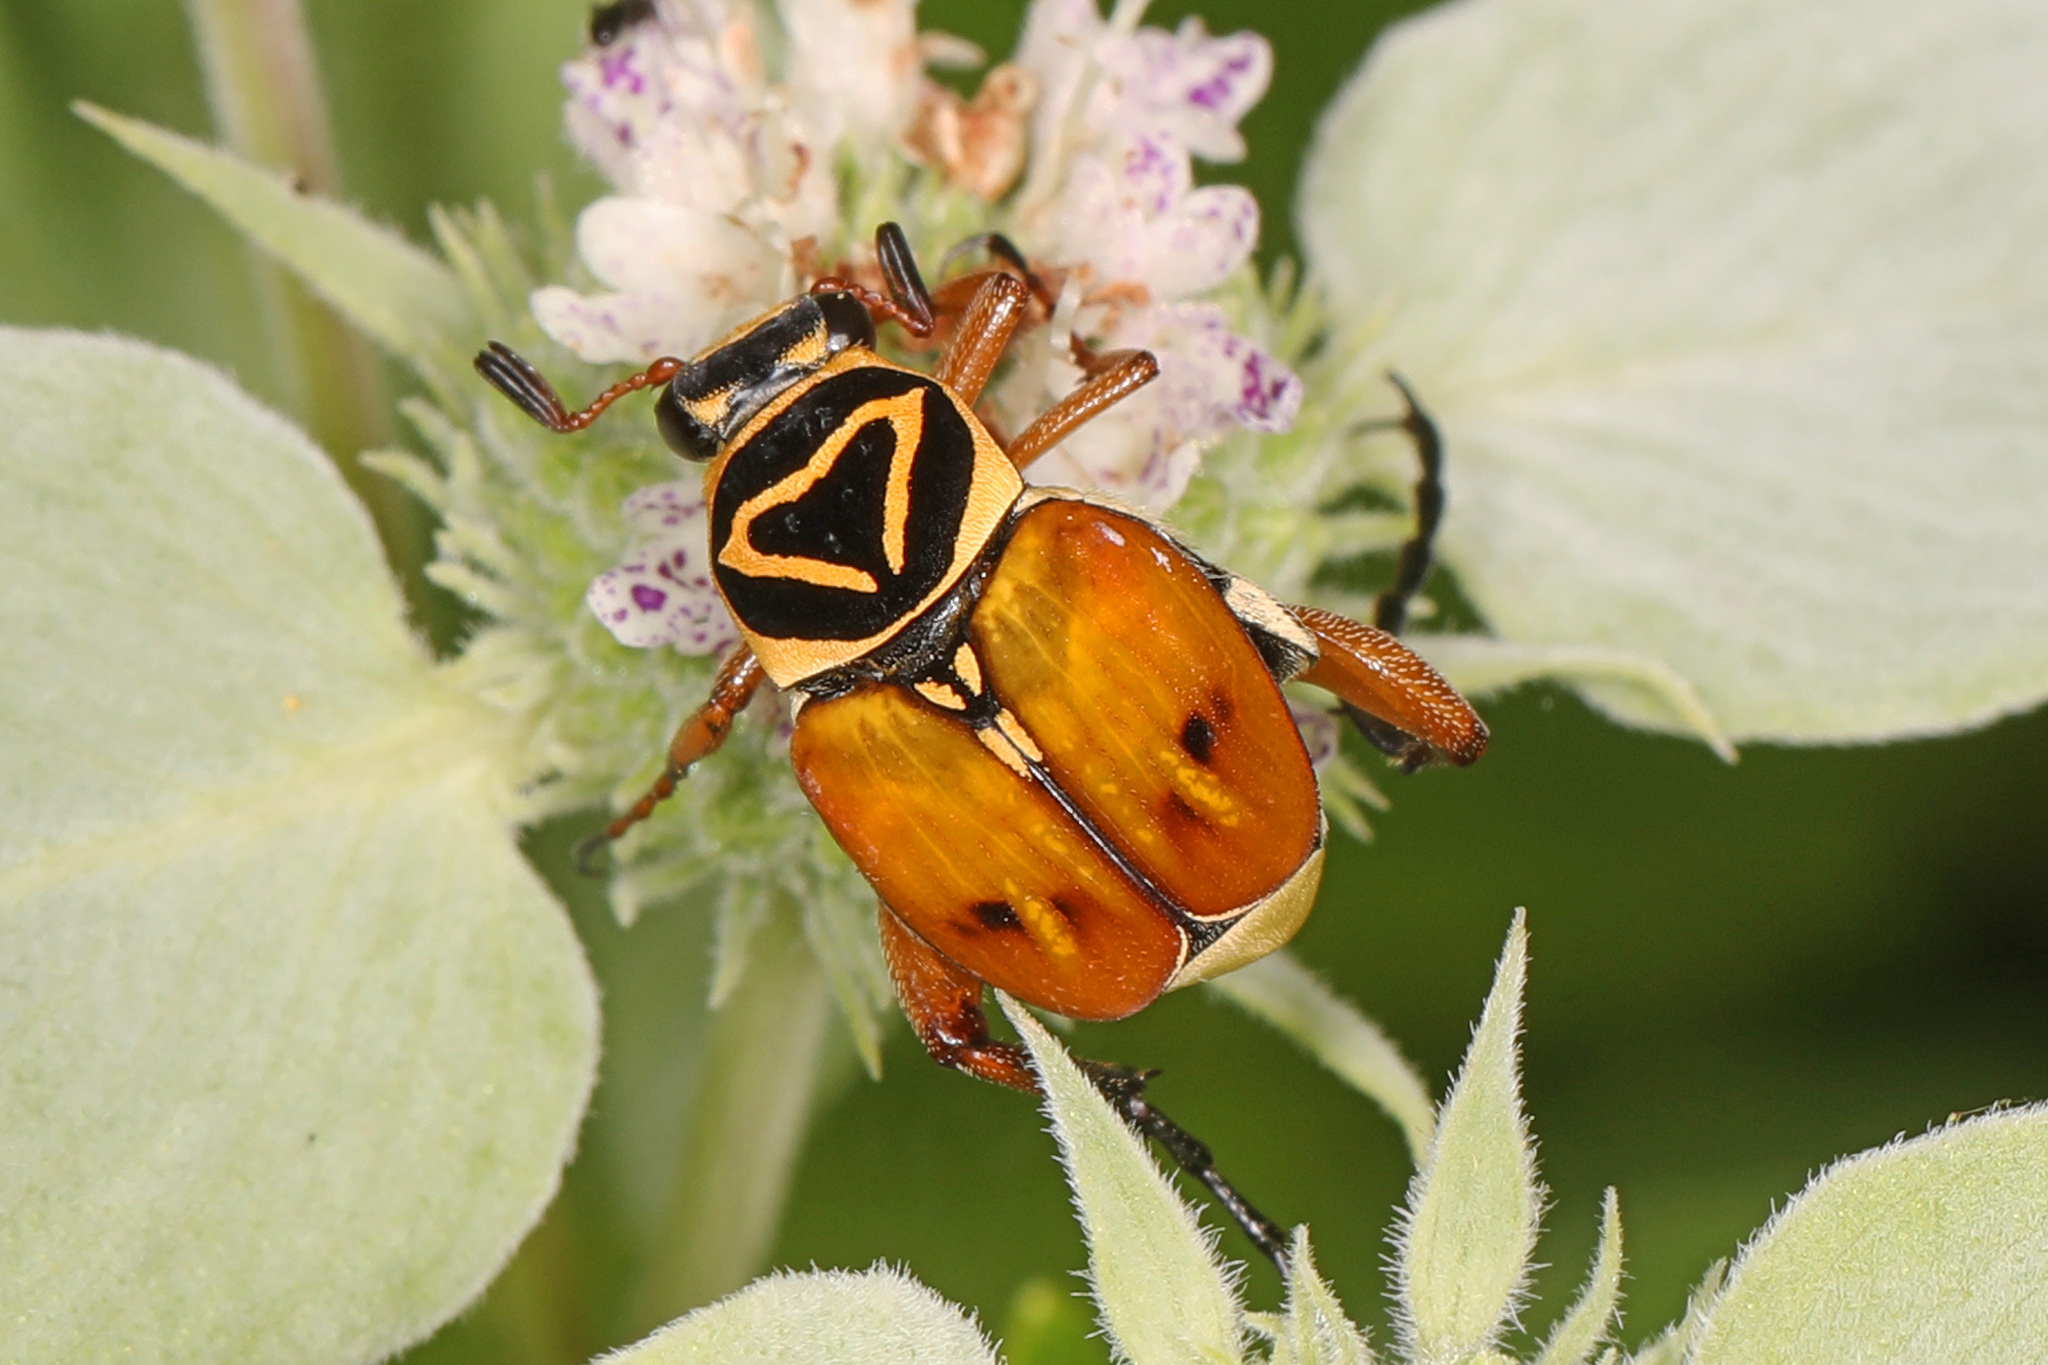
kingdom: Animalia
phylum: Arthropoda
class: Insecta
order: Coleoptera
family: Scarabaeidae
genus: Trigonopeltastes
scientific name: Trigonopeltastes delta
